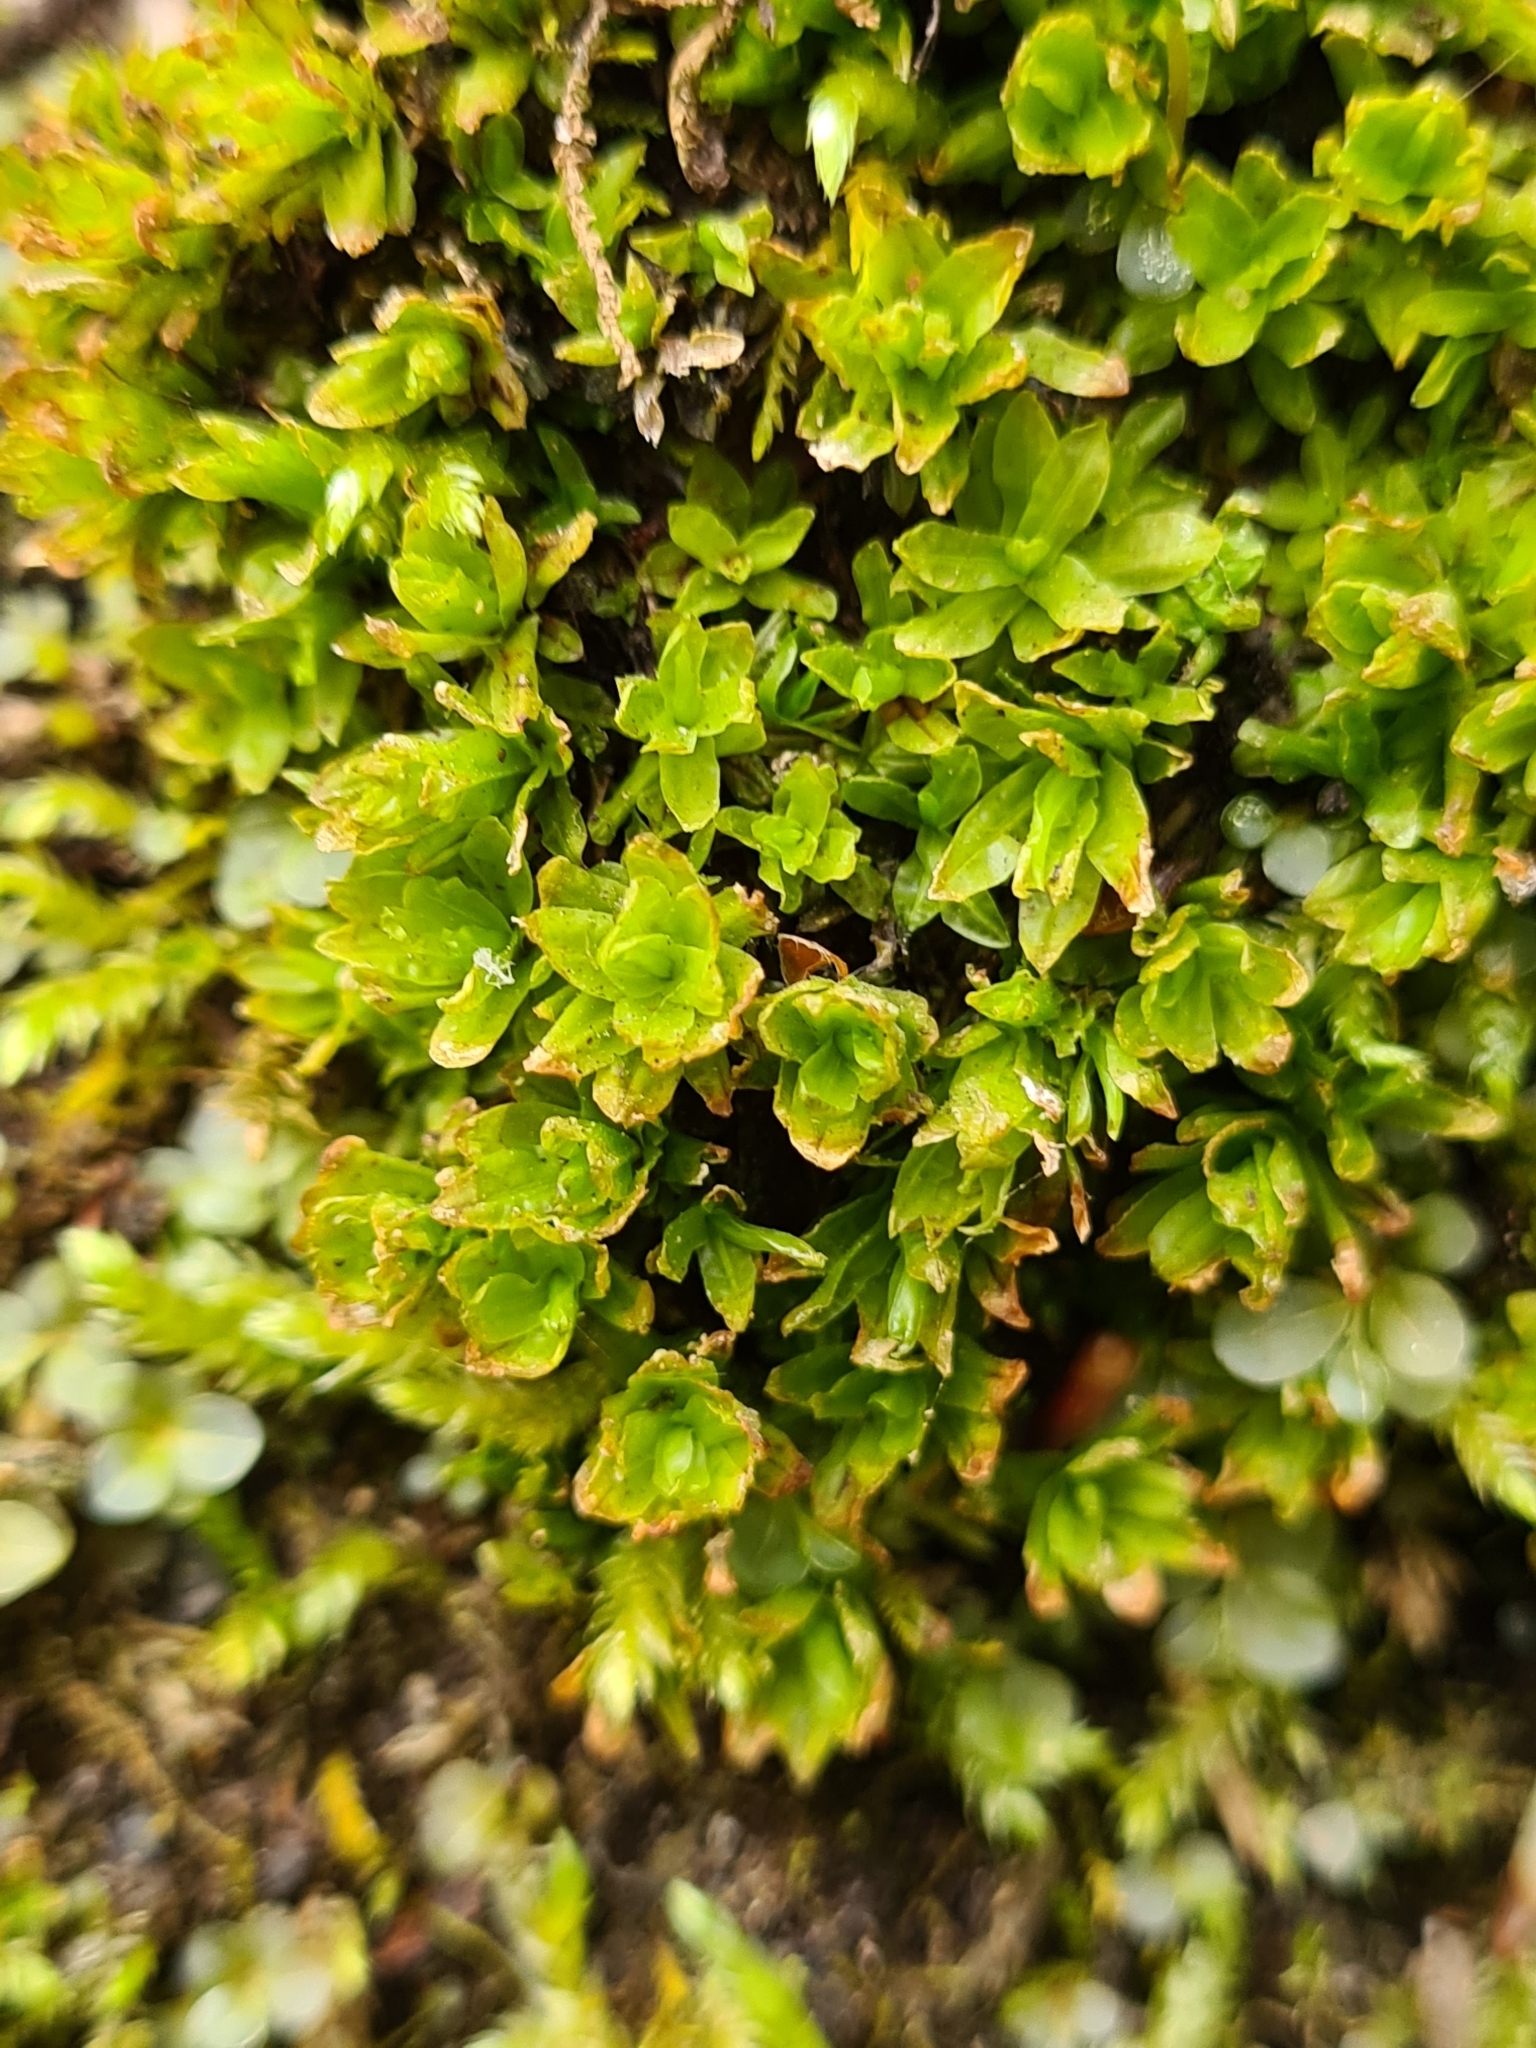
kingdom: Plantae
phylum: Bryophyta
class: Bryopsida
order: Encalyptales
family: Encalyptaceae
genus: Encalypta
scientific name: Encalypta streptocarpa
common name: Spiral extinguisher-moss
